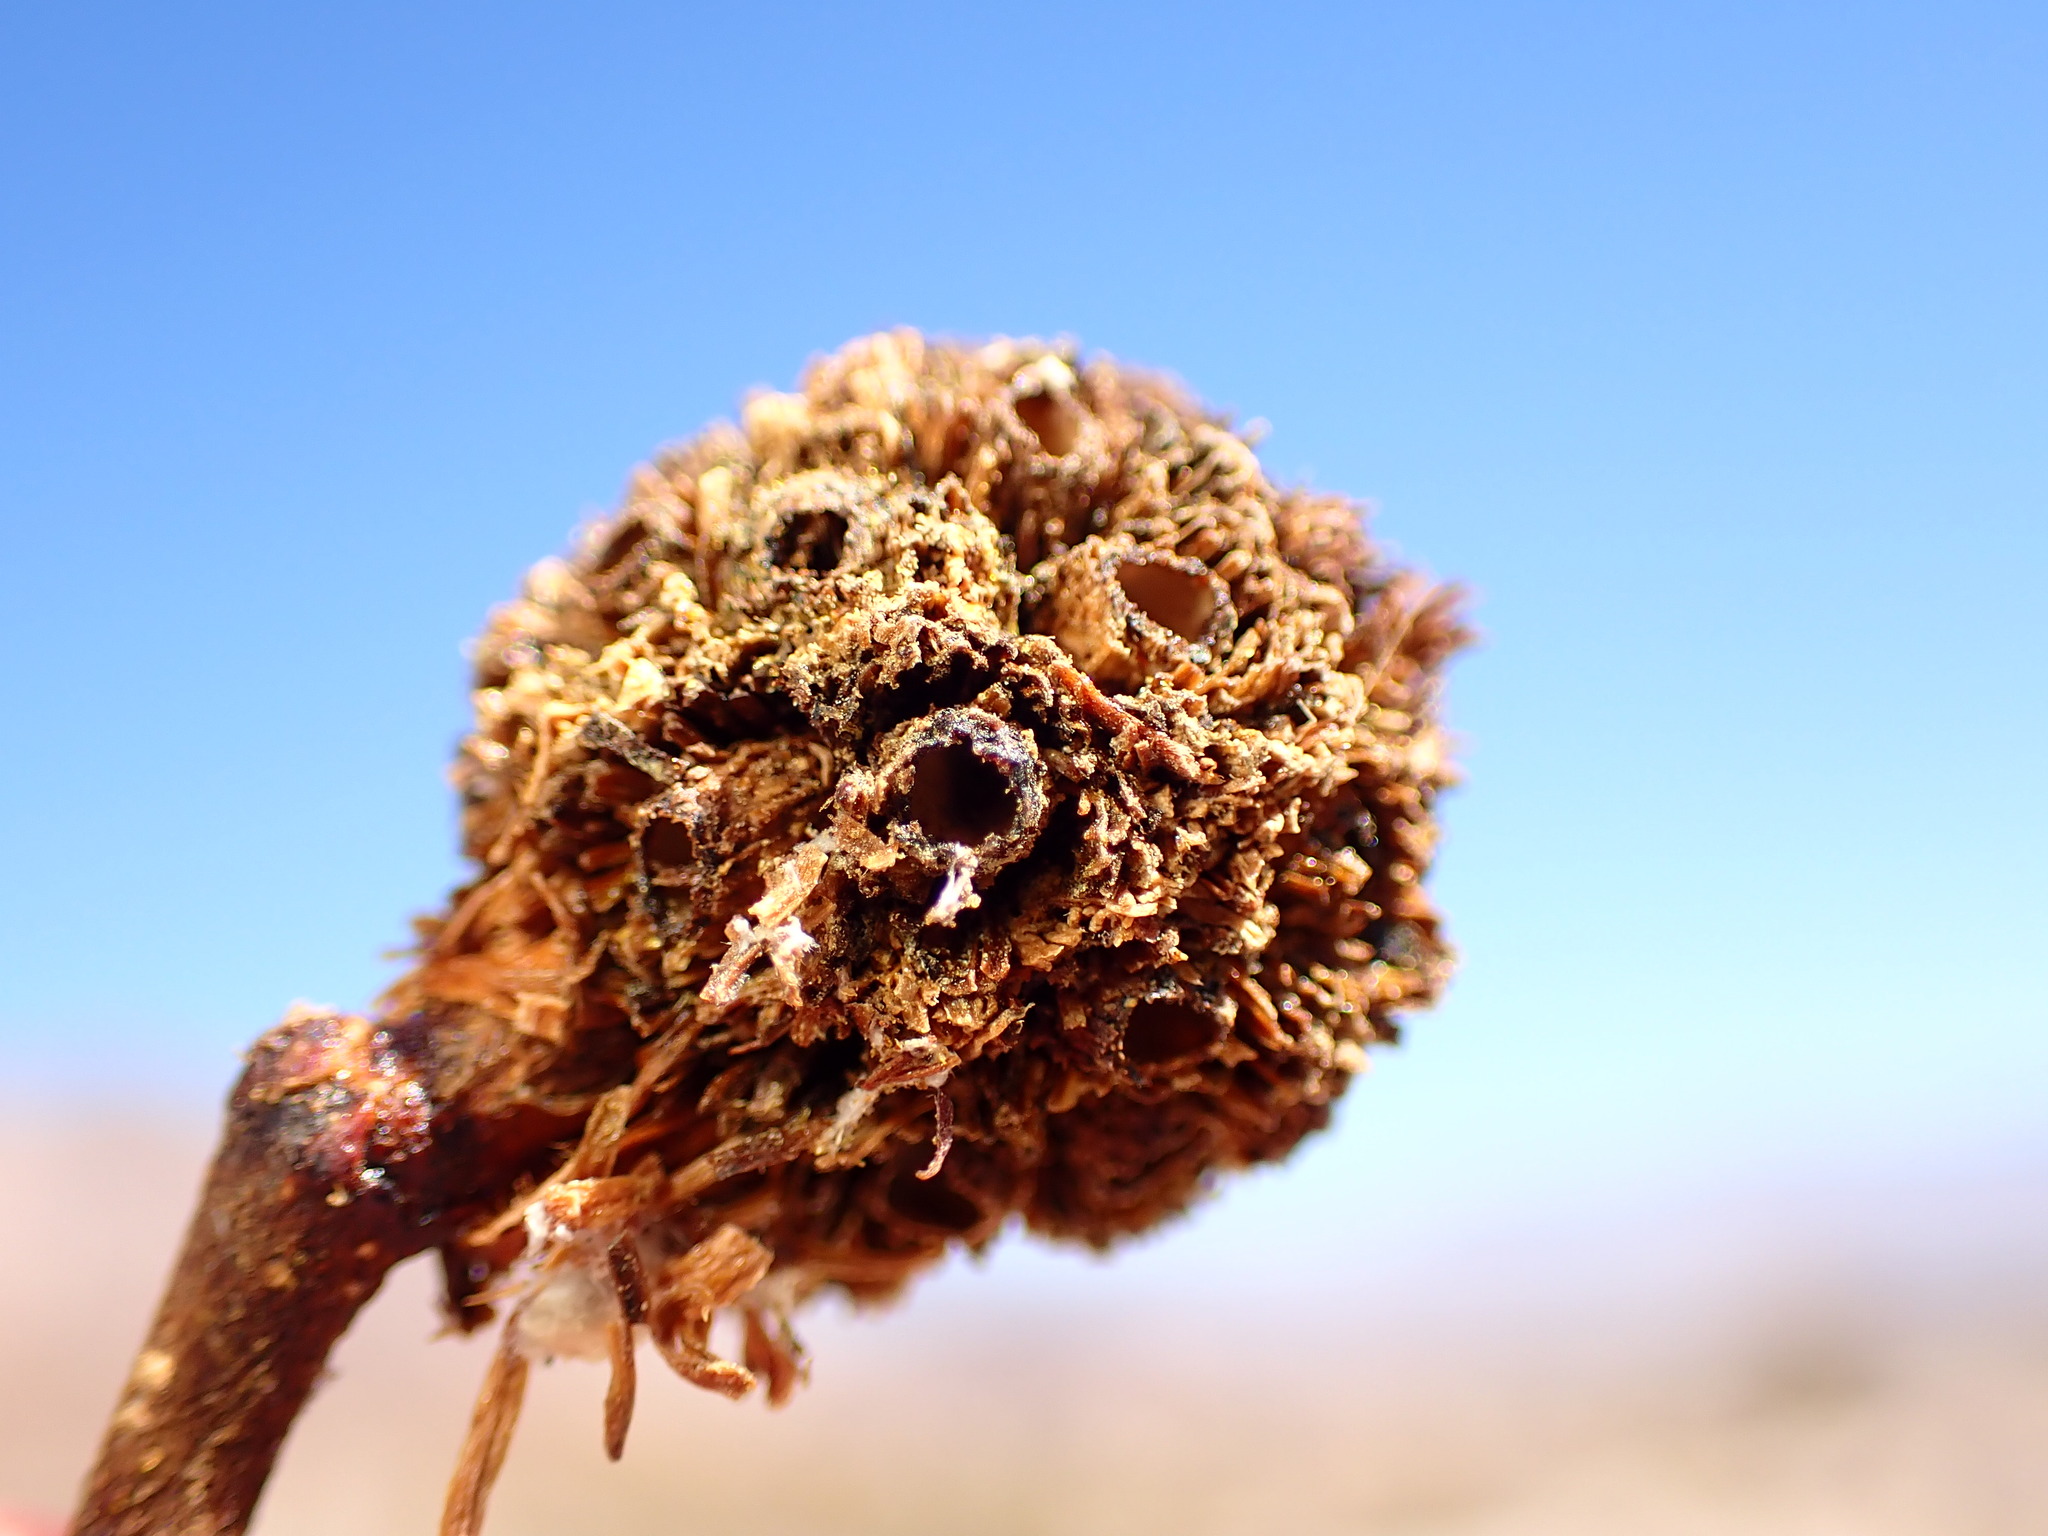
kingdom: Animalia
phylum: Arthropoda
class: Insecta
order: Diptera
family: Cecidomyiidae
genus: Asphondylia
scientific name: Asphondylia auripila
